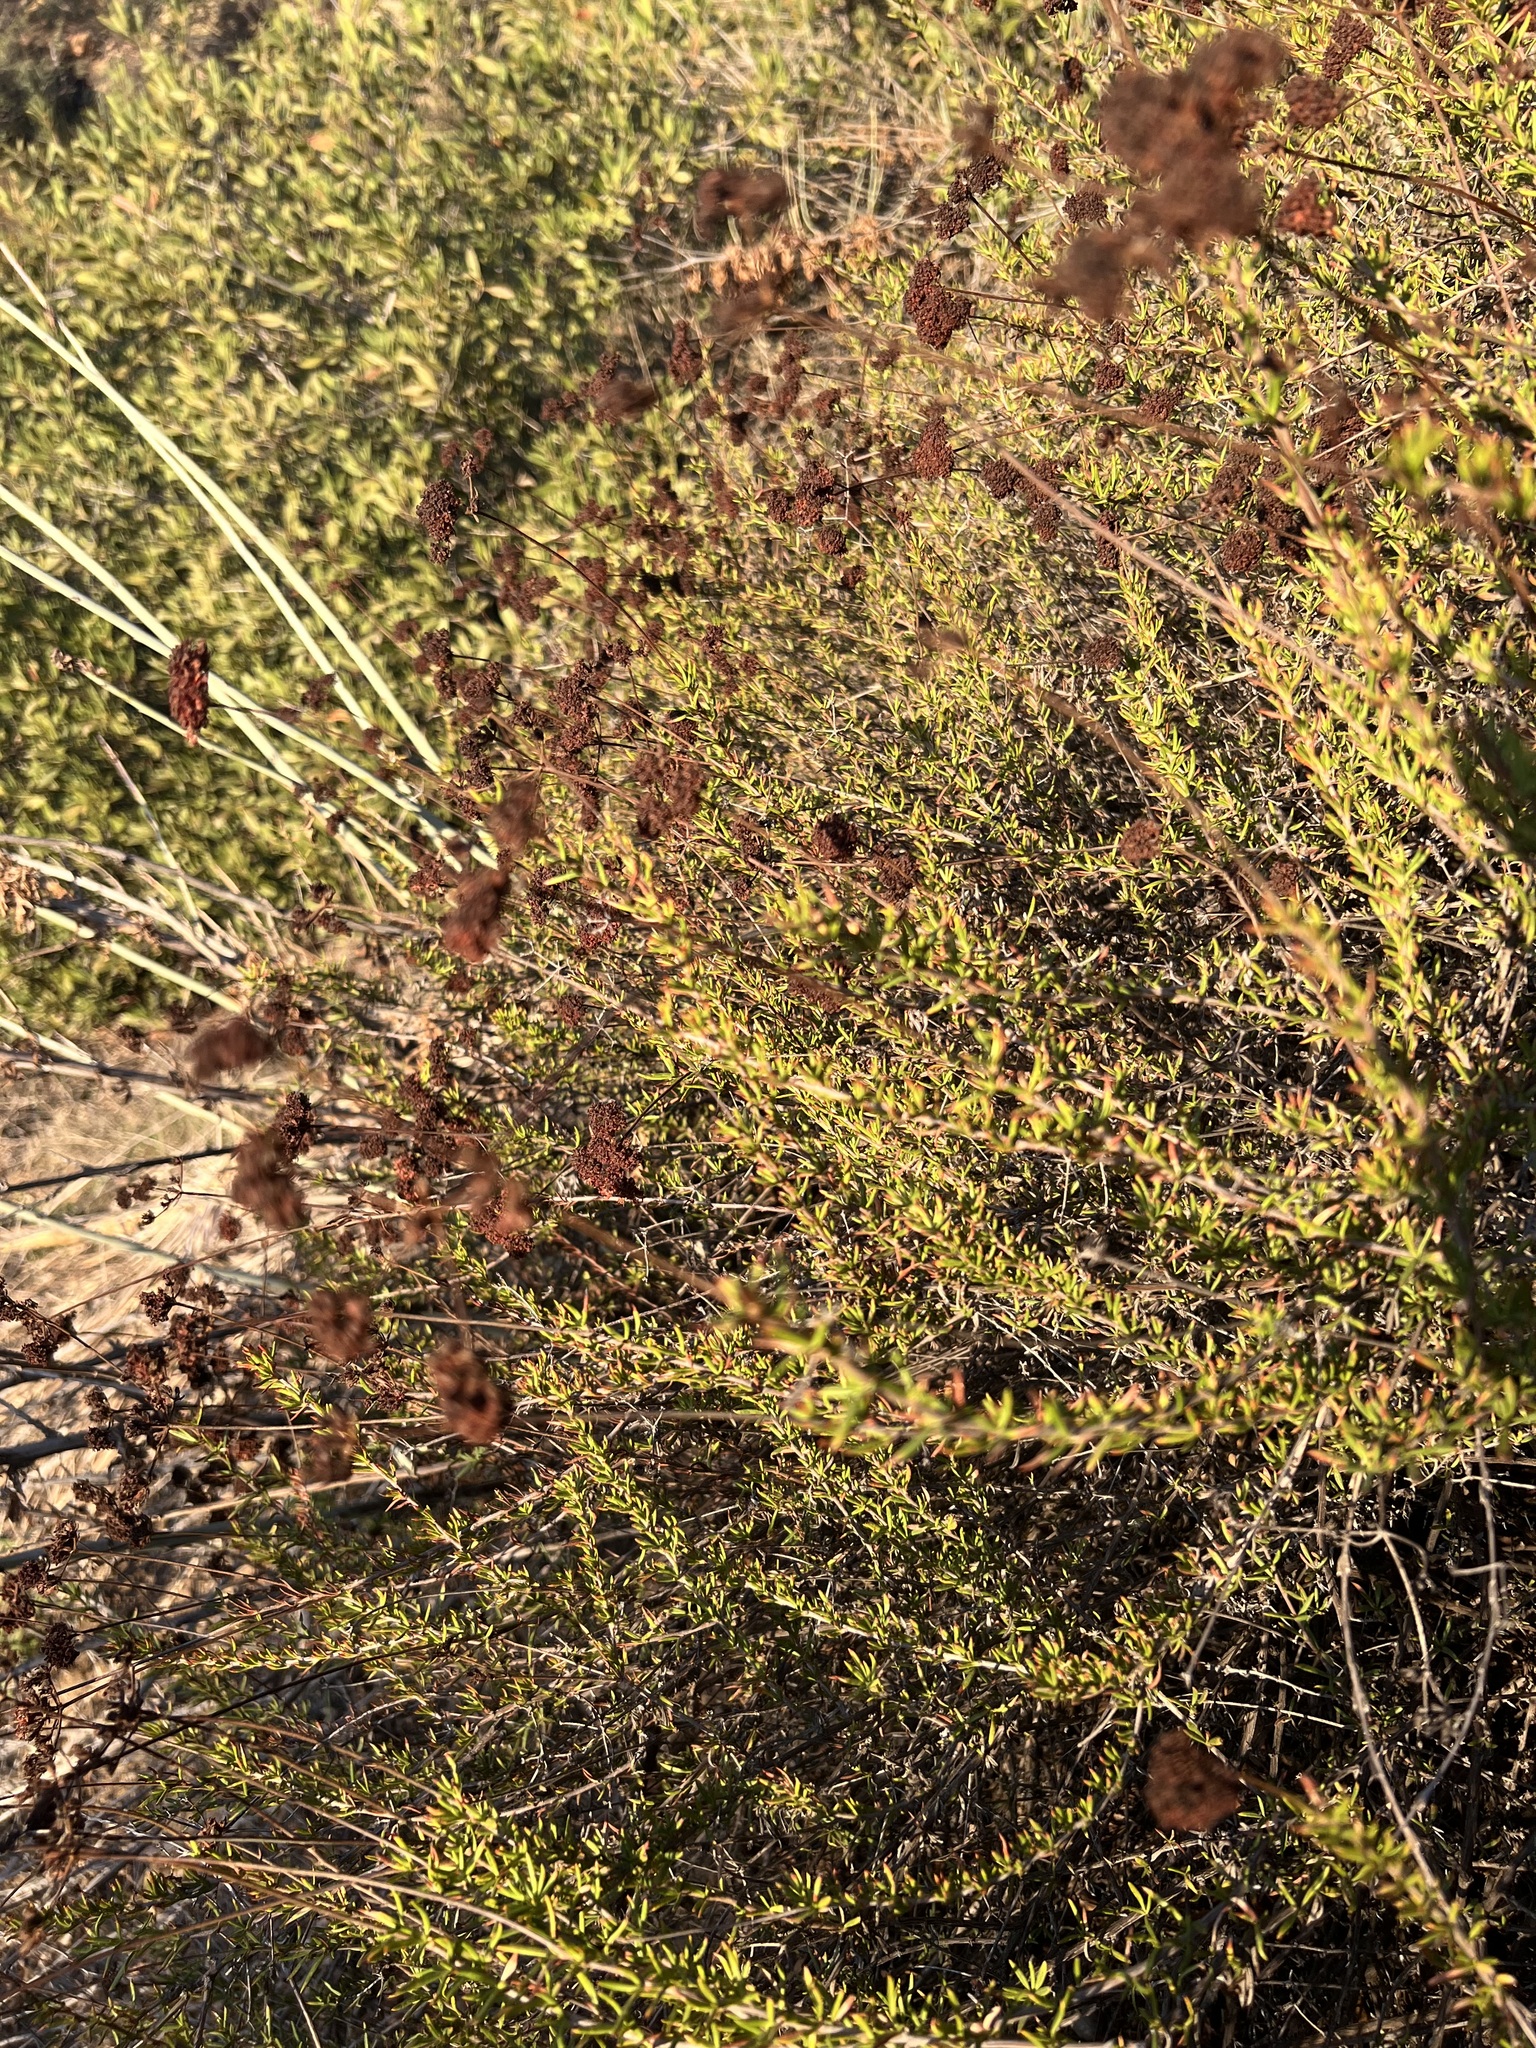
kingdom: Plantae
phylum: Tracheophyta
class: Magnoliopsida
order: Caryophyllales
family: Polygonaceae
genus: Eriogonum
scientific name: Eriogonum fasciculatum
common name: California wild buckwheat
